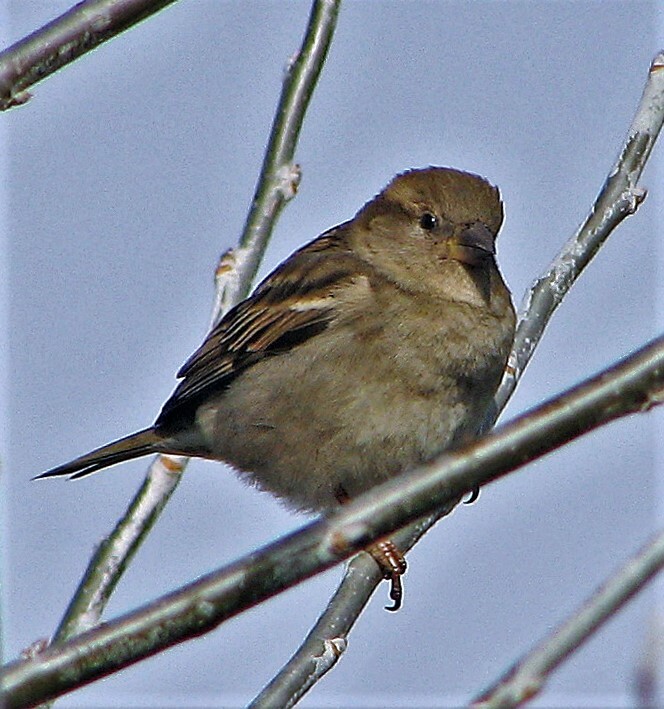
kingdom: Animalia
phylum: Chordata
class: Aves
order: Passeriformes
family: Passeridae
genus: Passer
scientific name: Passer domesticus
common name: House sparrow
